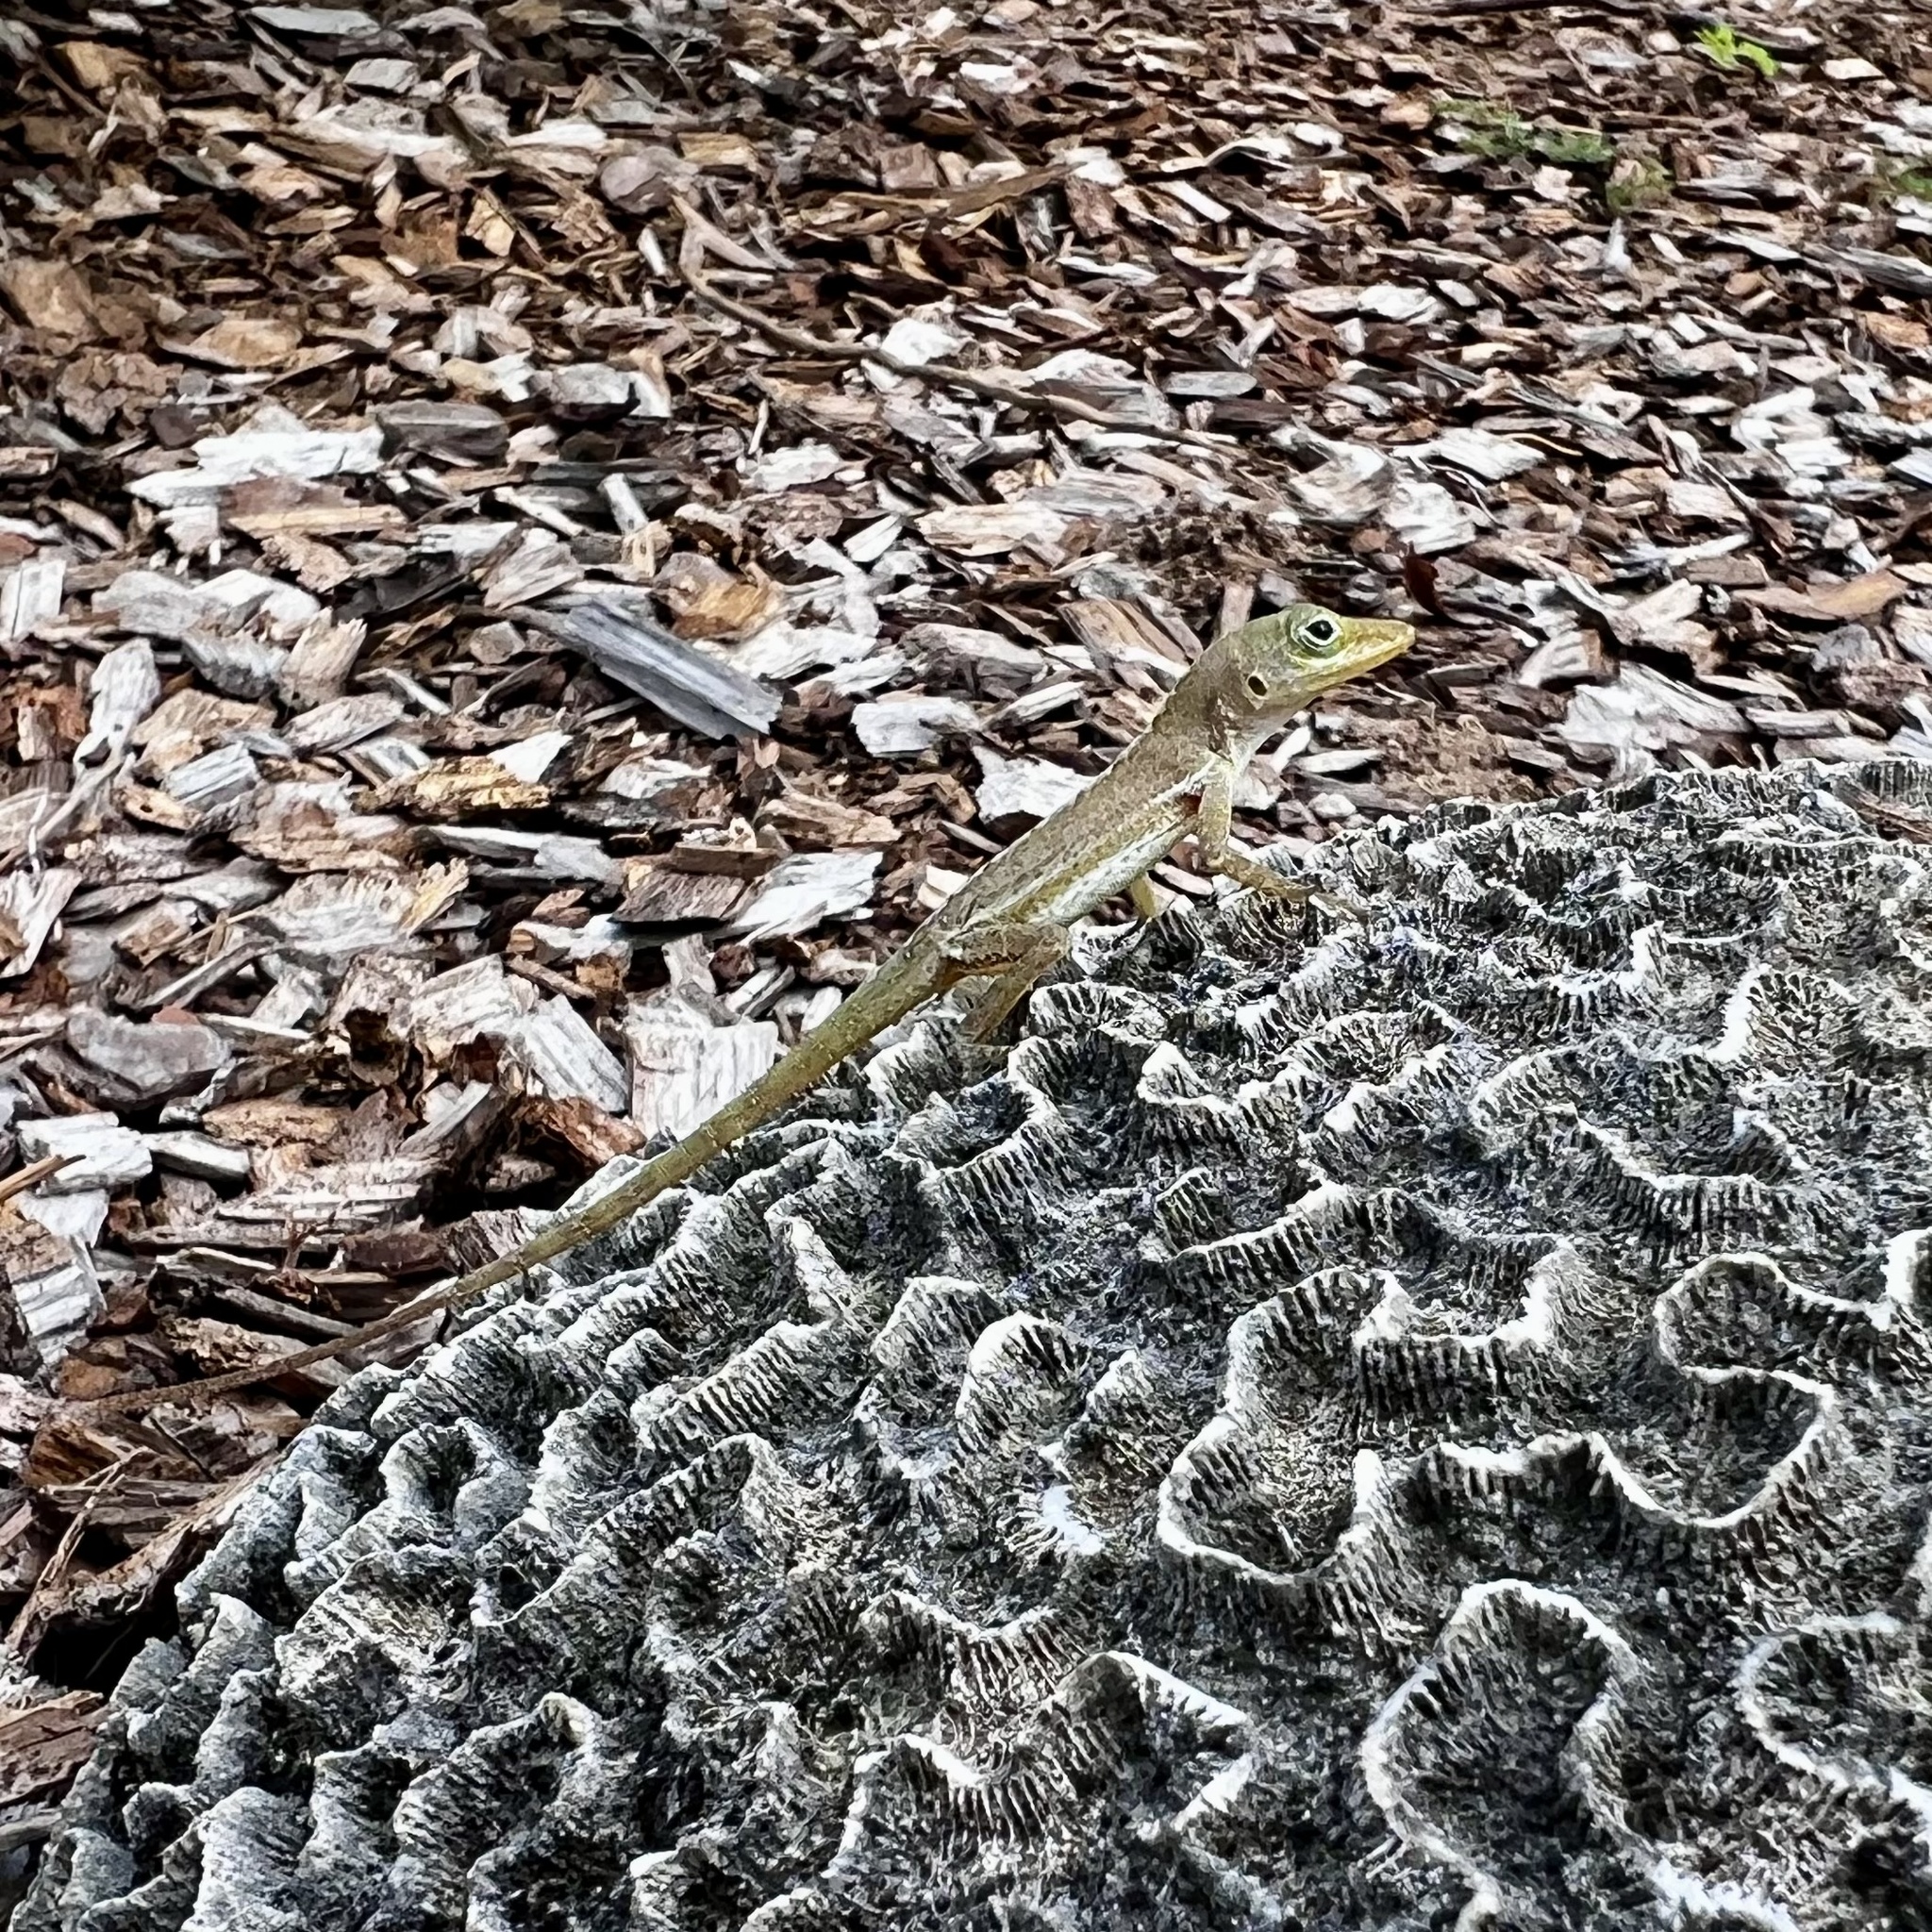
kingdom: Animalia
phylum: Chordata
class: Squamata
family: Dactyloidae
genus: Anolis
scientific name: Anolis acutus
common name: Saint croix's anole
